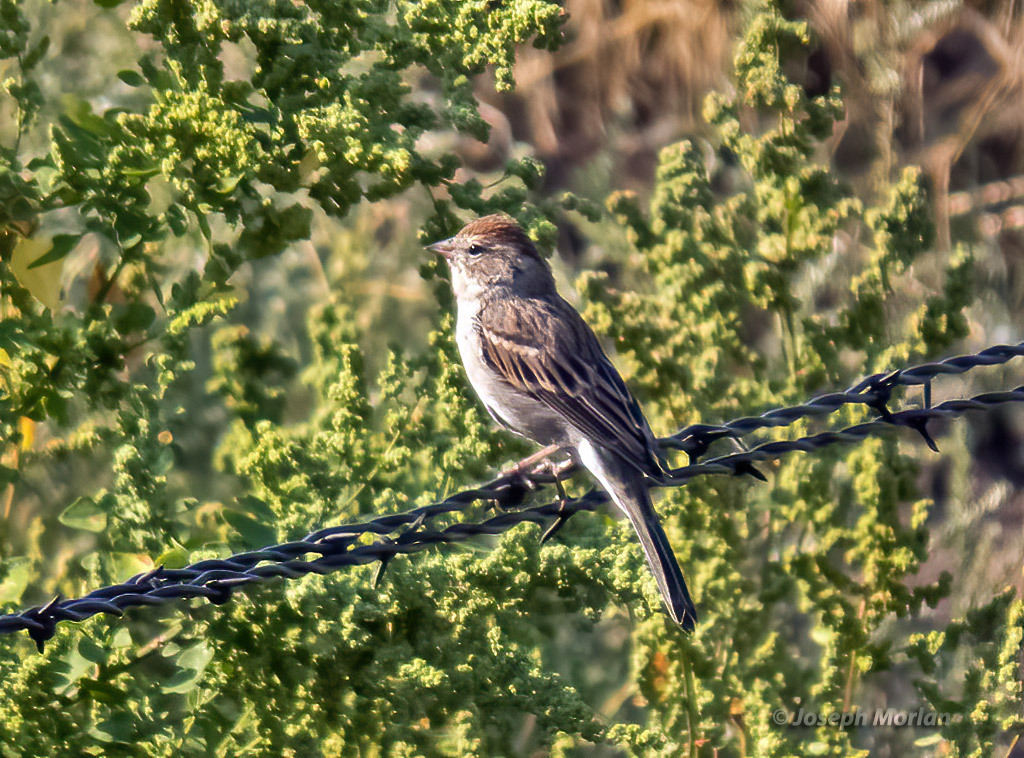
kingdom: Animalia
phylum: Chordata
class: Aves
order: Passeriformes
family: Passerellidae
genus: Spizella
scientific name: Spizella passerina
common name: Chipping sparrow
